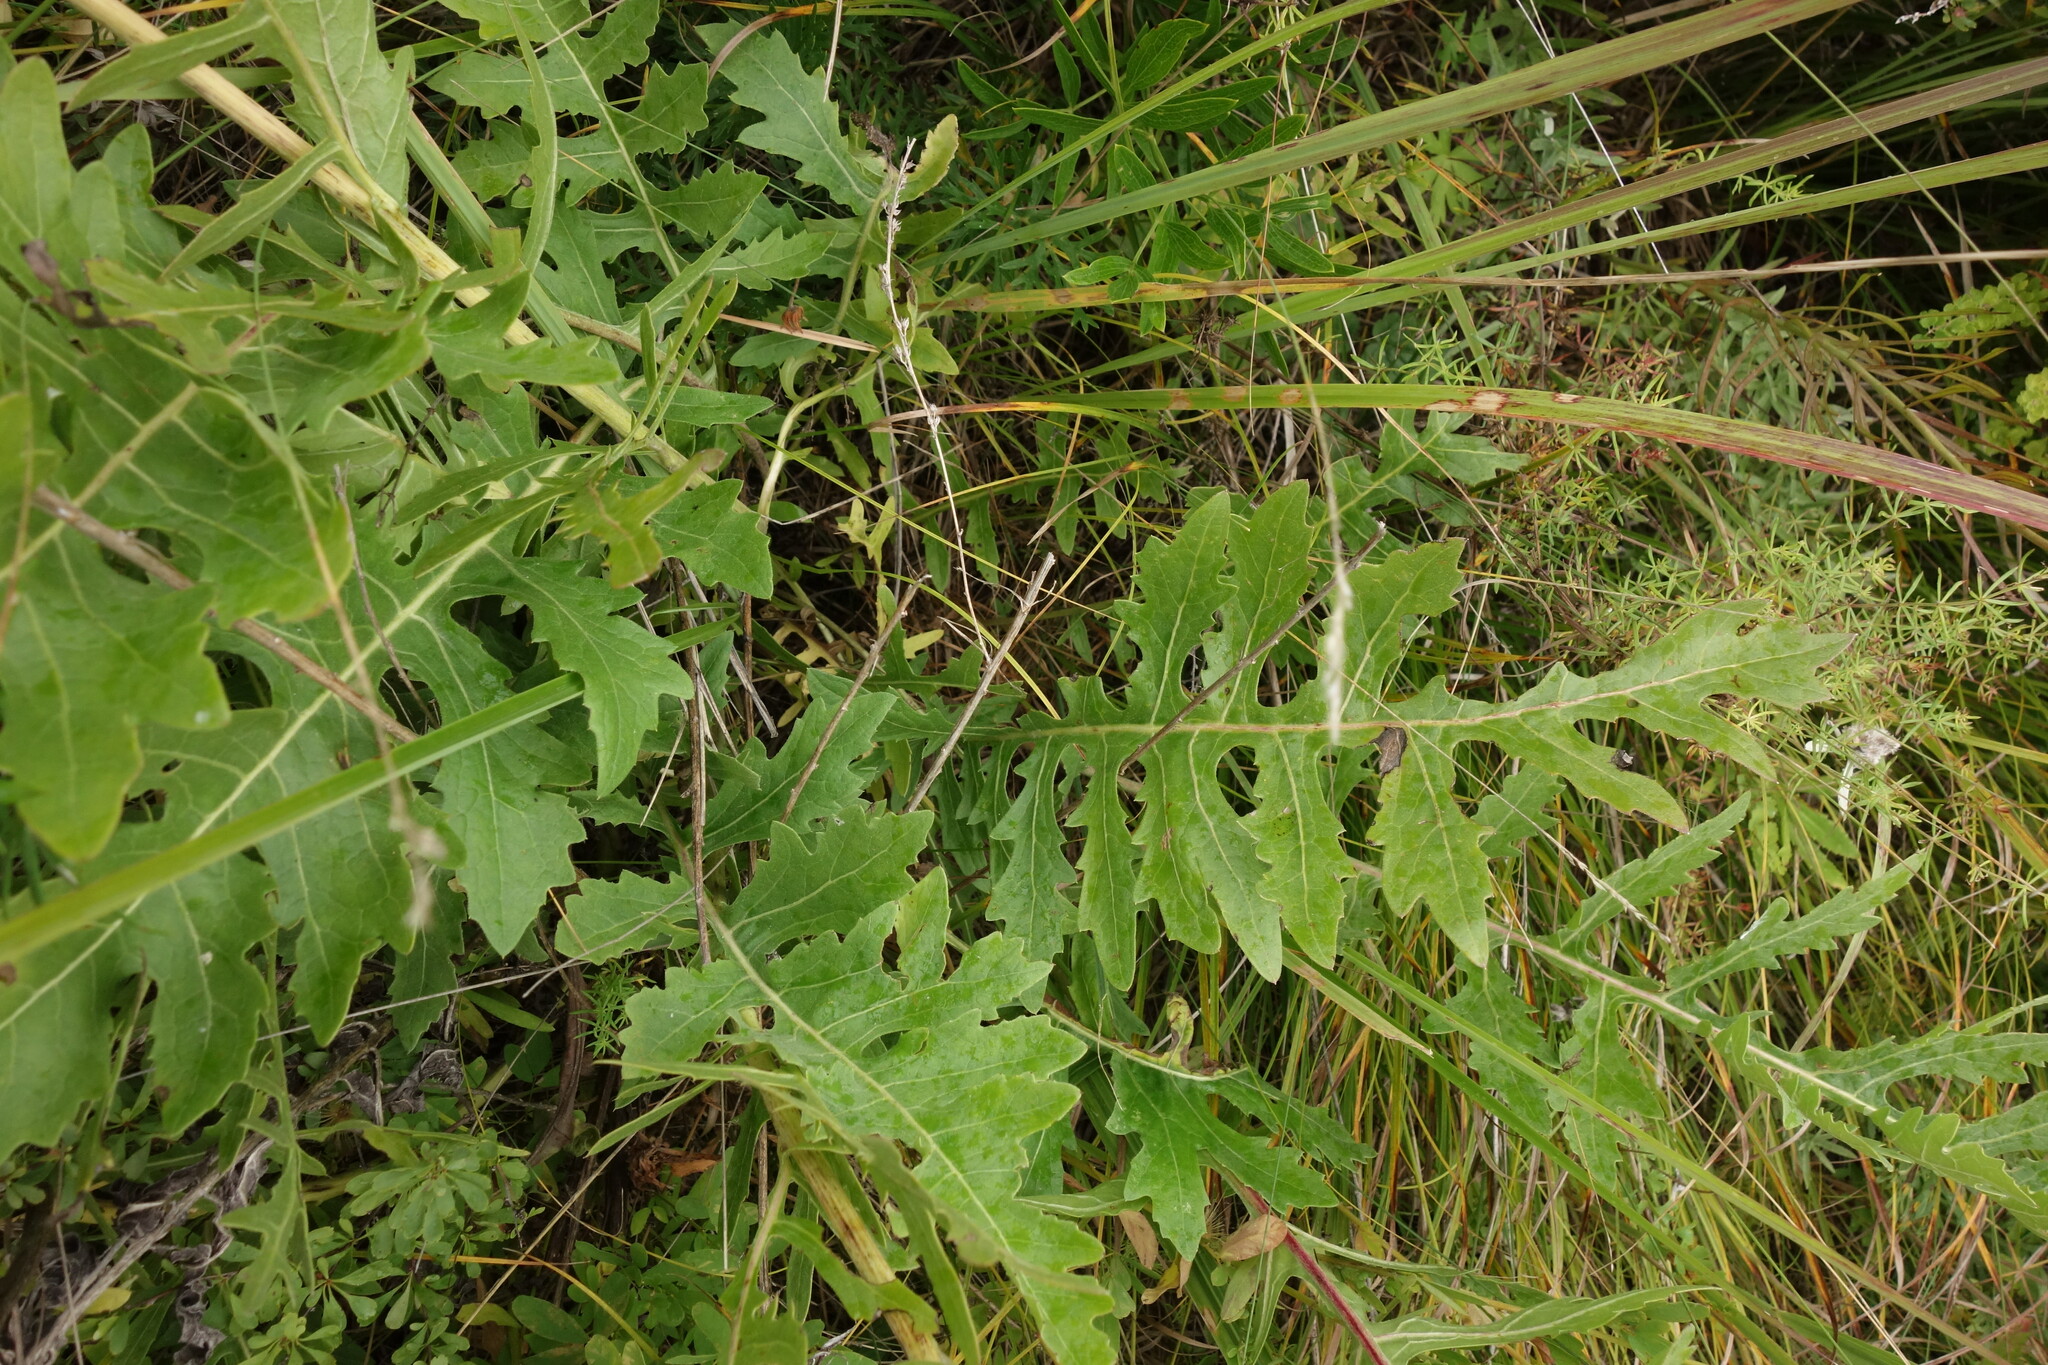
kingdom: Plantae
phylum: Tracheophyta
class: Magnoliopsida
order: Asterales
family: Asteraceae
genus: Leuzea
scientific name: Leuzea uniflora
